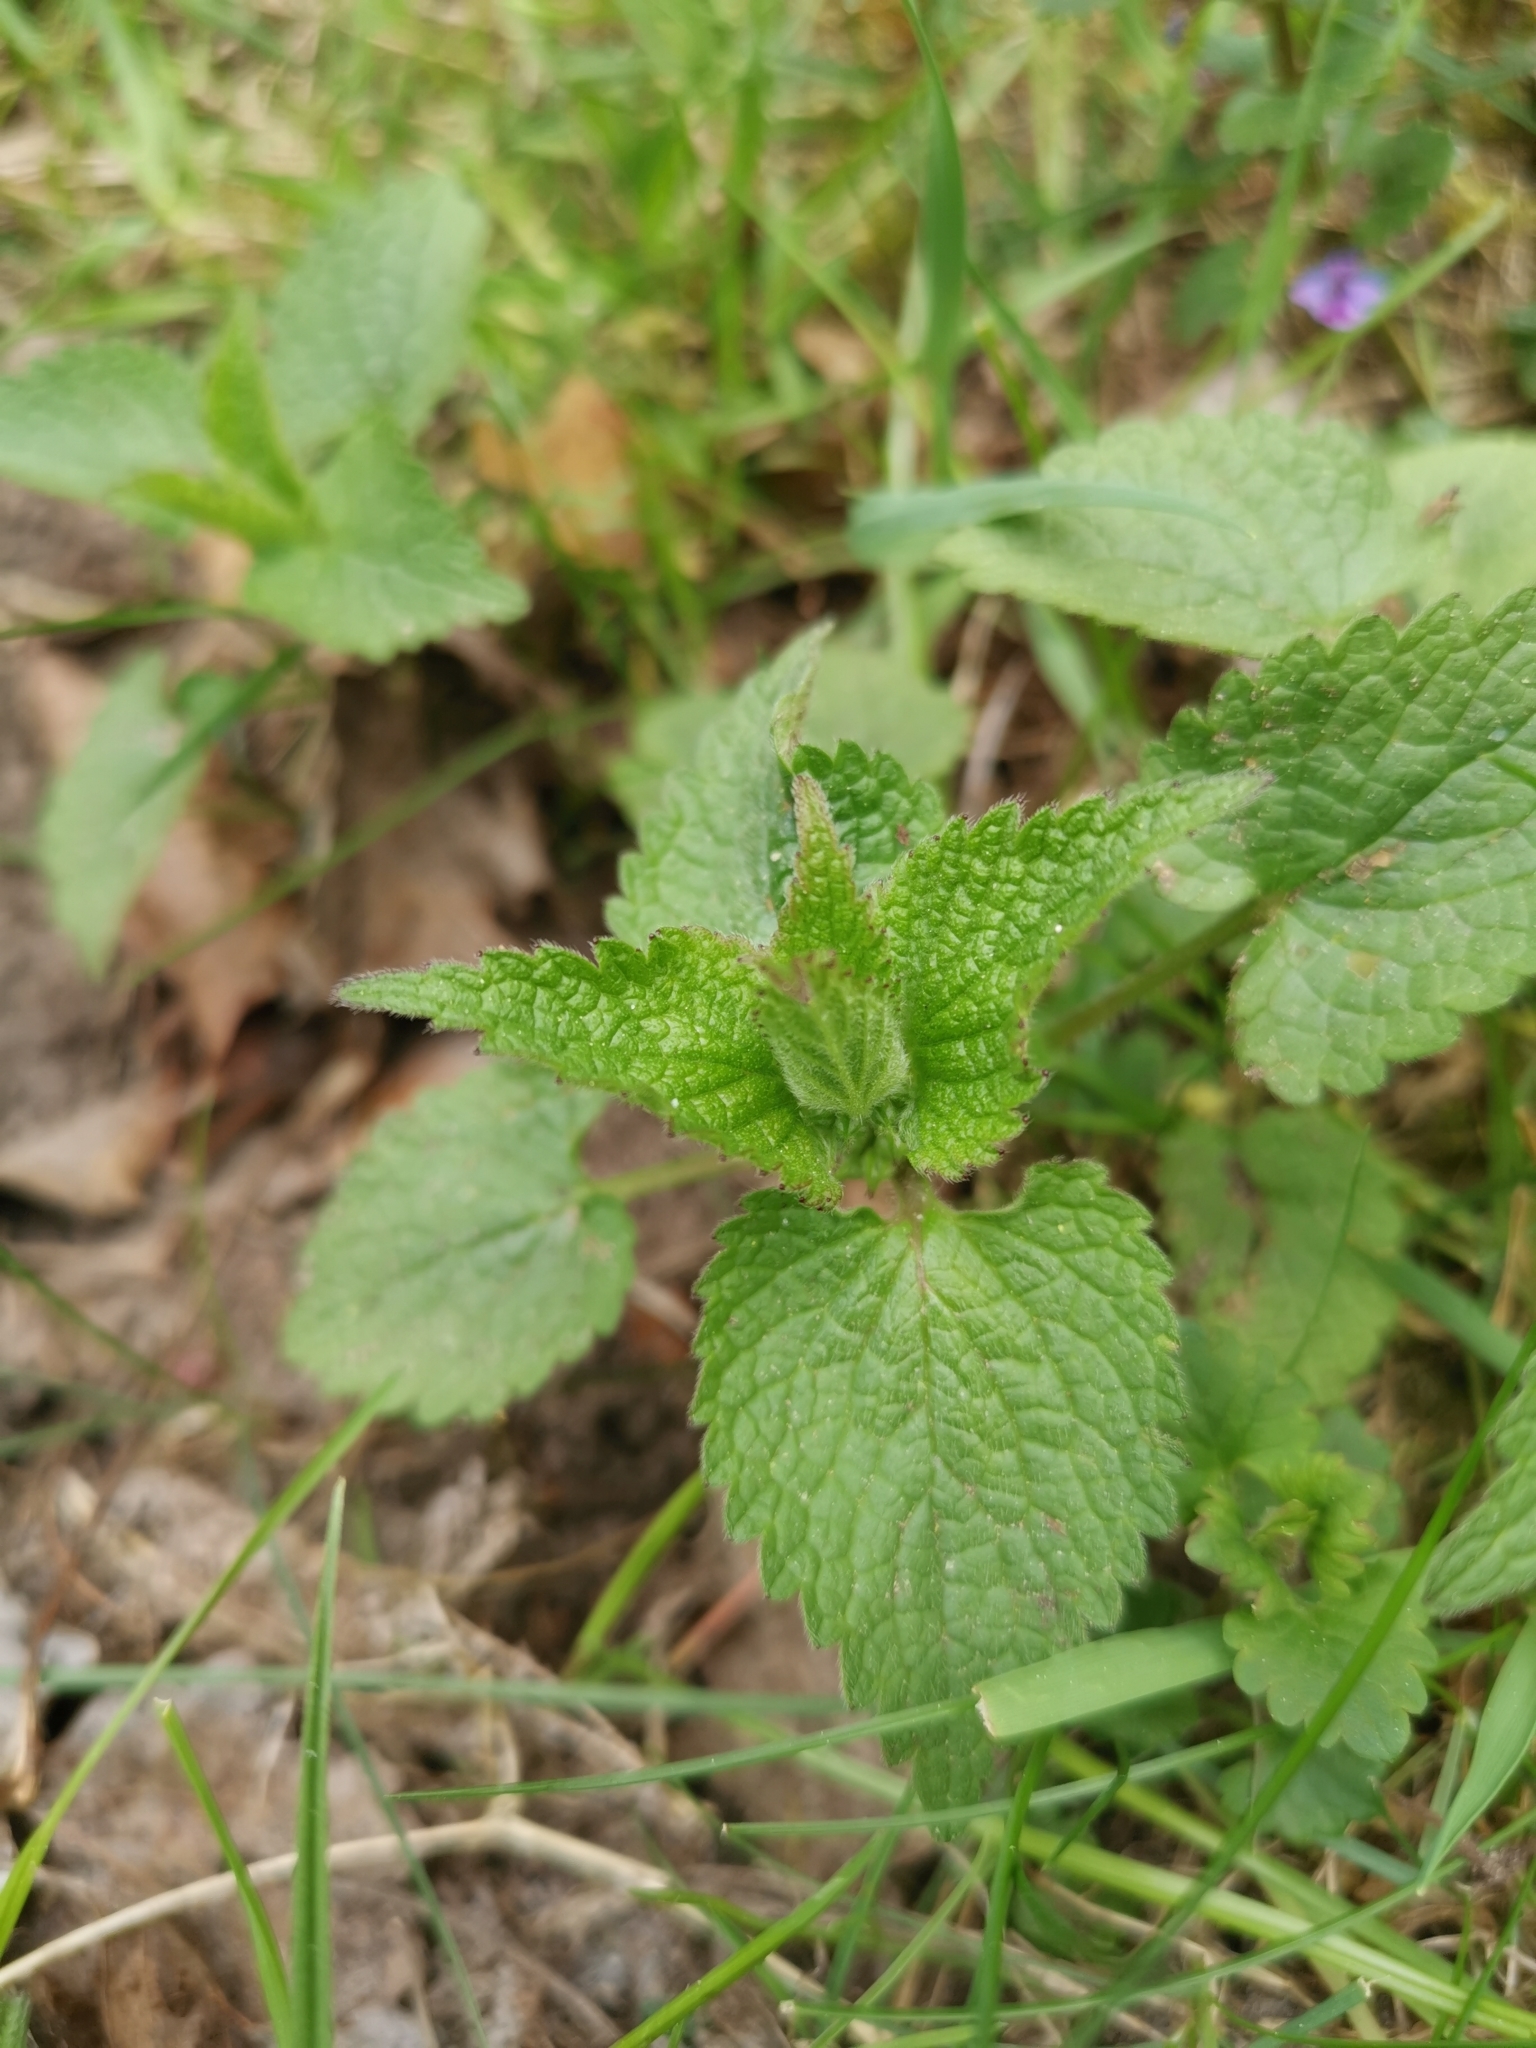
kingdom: Plantae
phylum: Tracheophyta
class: Magnoliopsida
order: Lamiales
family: Lamiaceae
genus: Lamium
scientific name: Lamium album
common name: White dead-nettle
